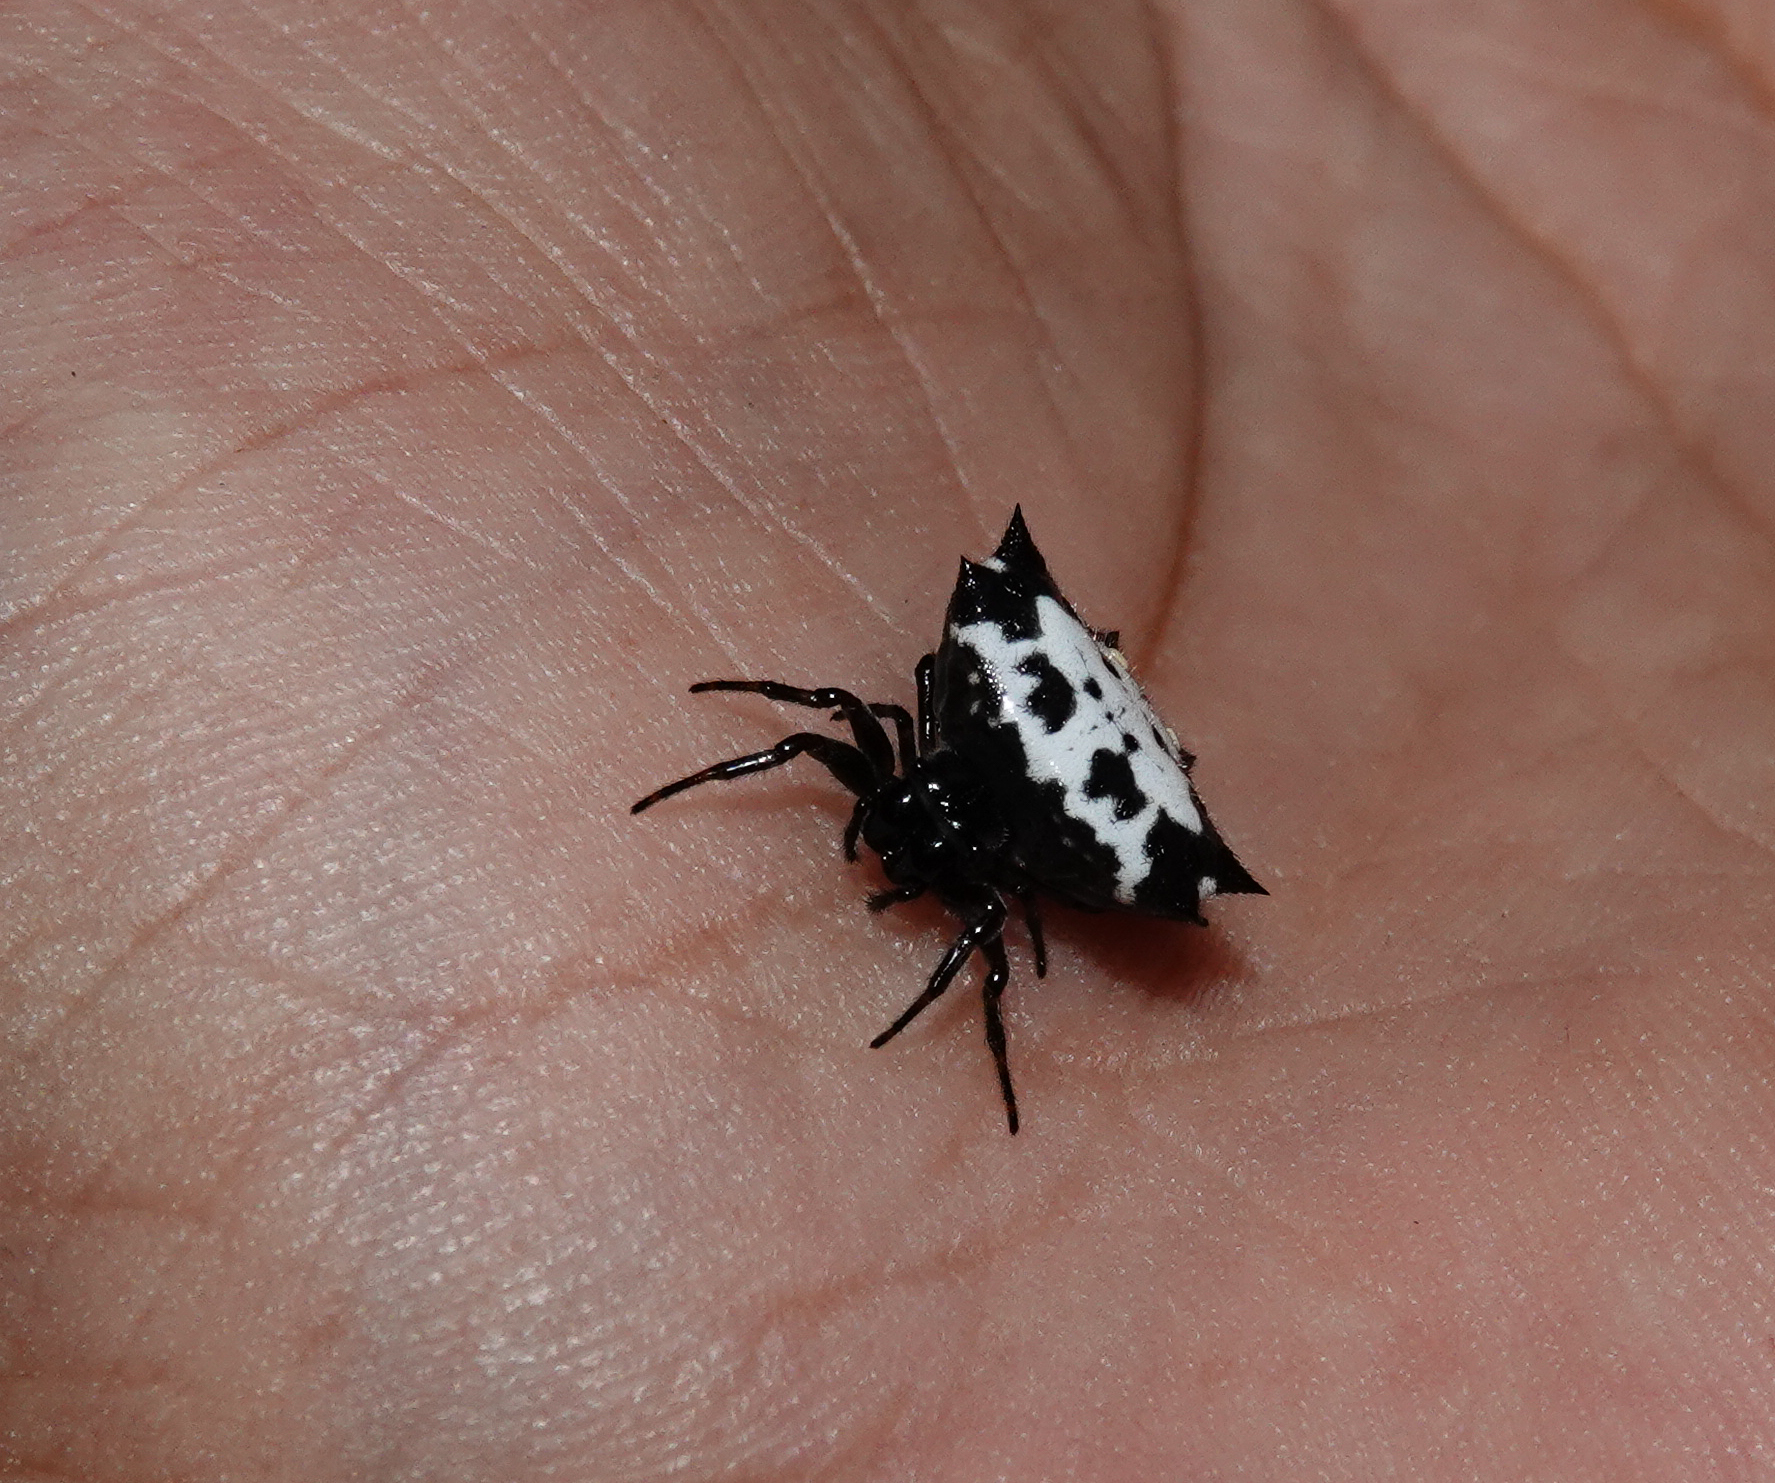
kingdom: Animalia
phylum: Arthropoda
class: Arachnida
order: Araneae
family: Araneidae
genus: Gasteracantha
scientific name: Gasteracantha kuhli
